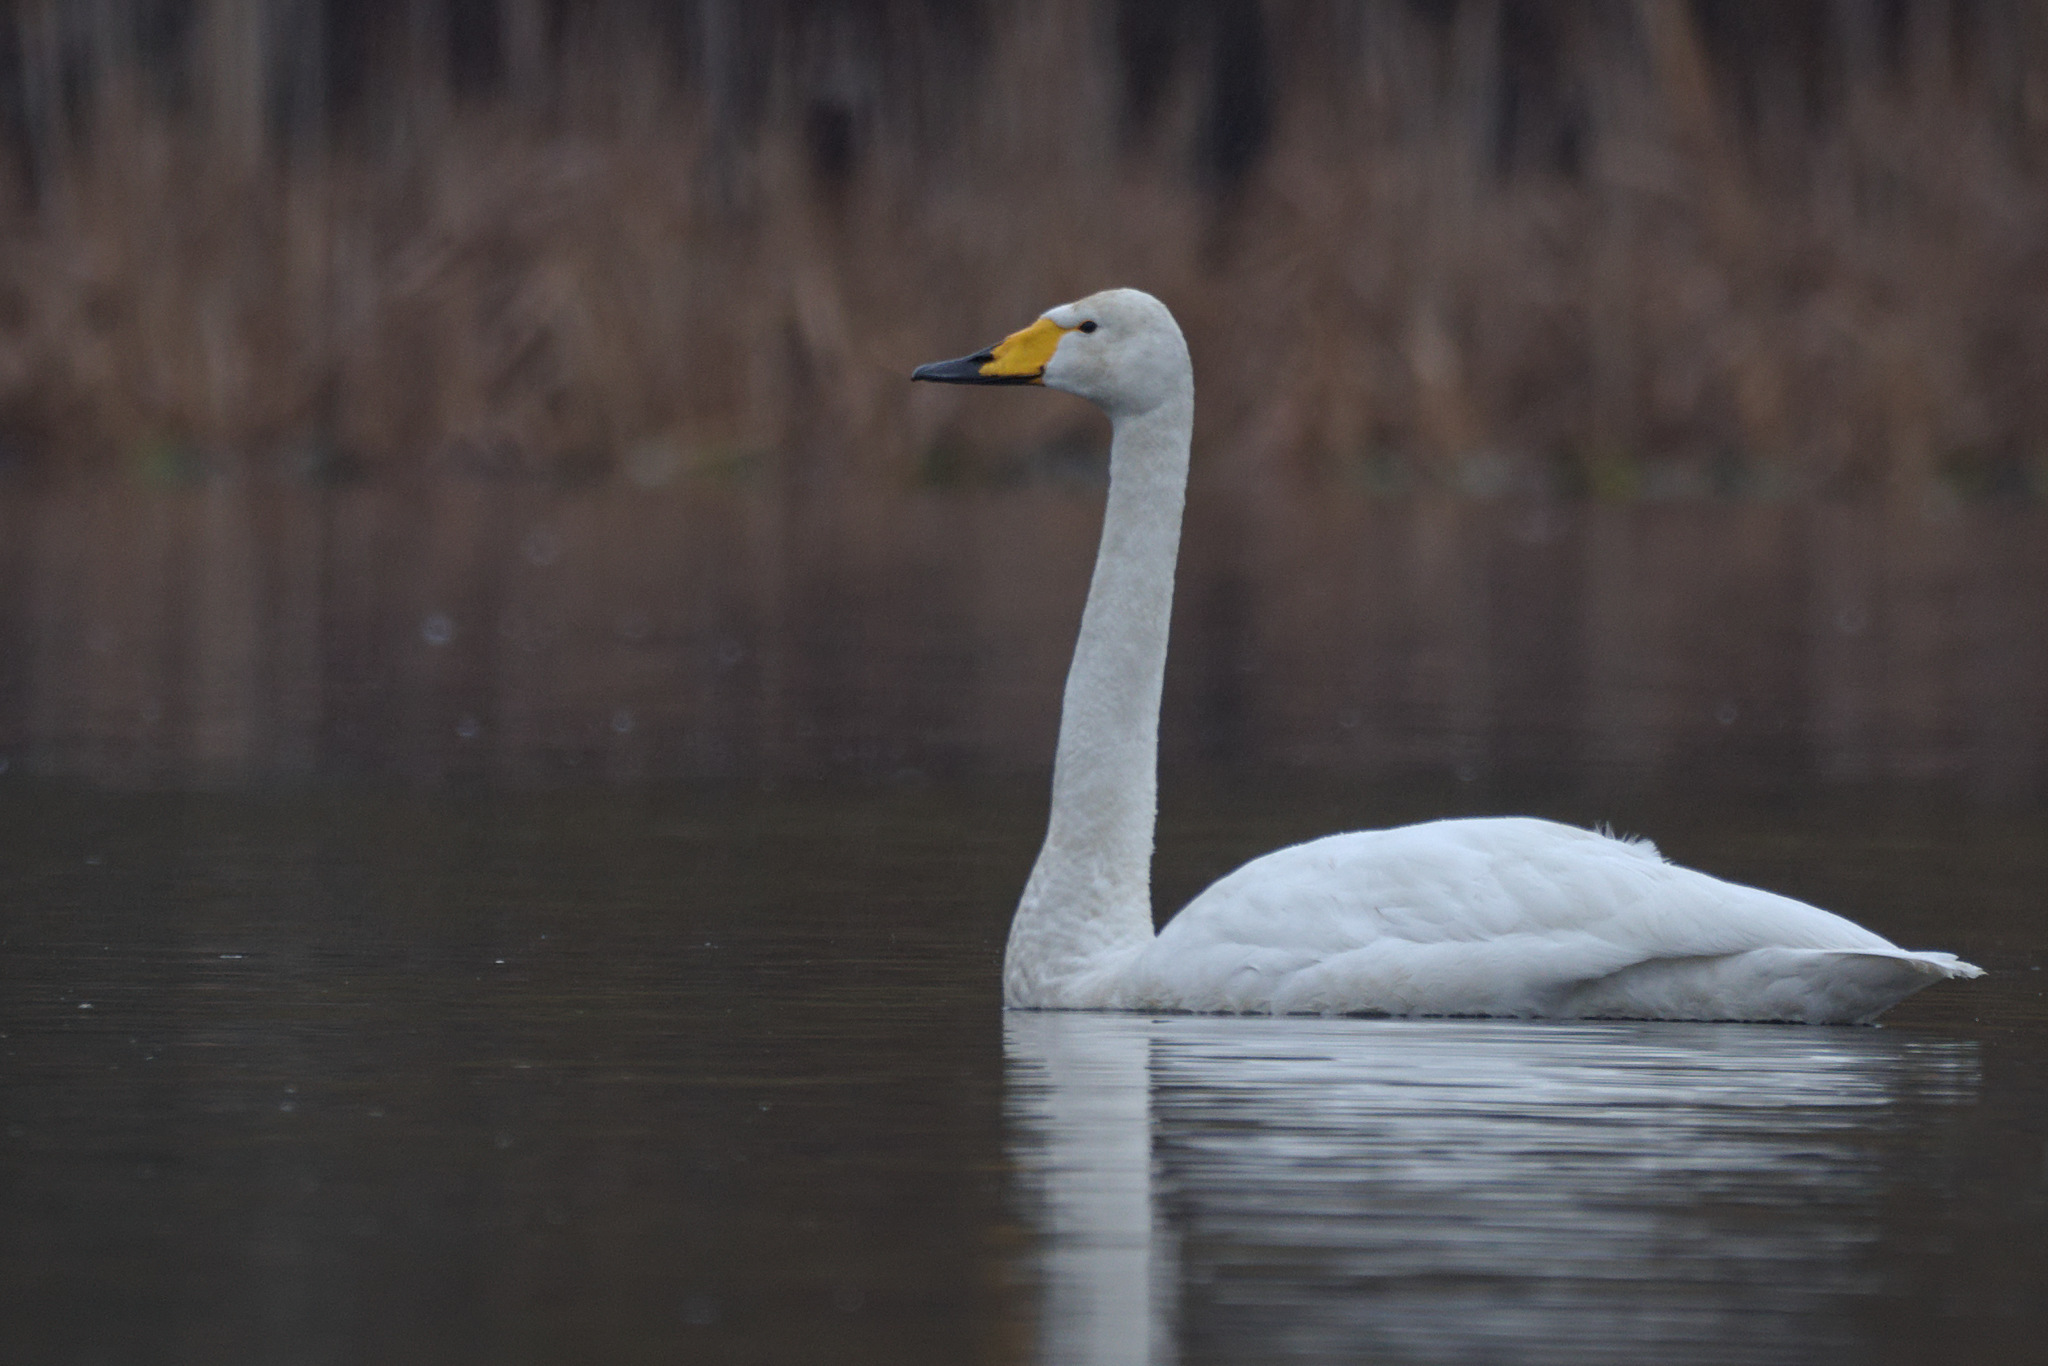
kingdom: Animalia
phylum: Chordata
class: Aves
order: Anseriformes
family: Anatidae
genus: Cygnus
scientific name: Cygnus cygnus
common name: Whooper swan
